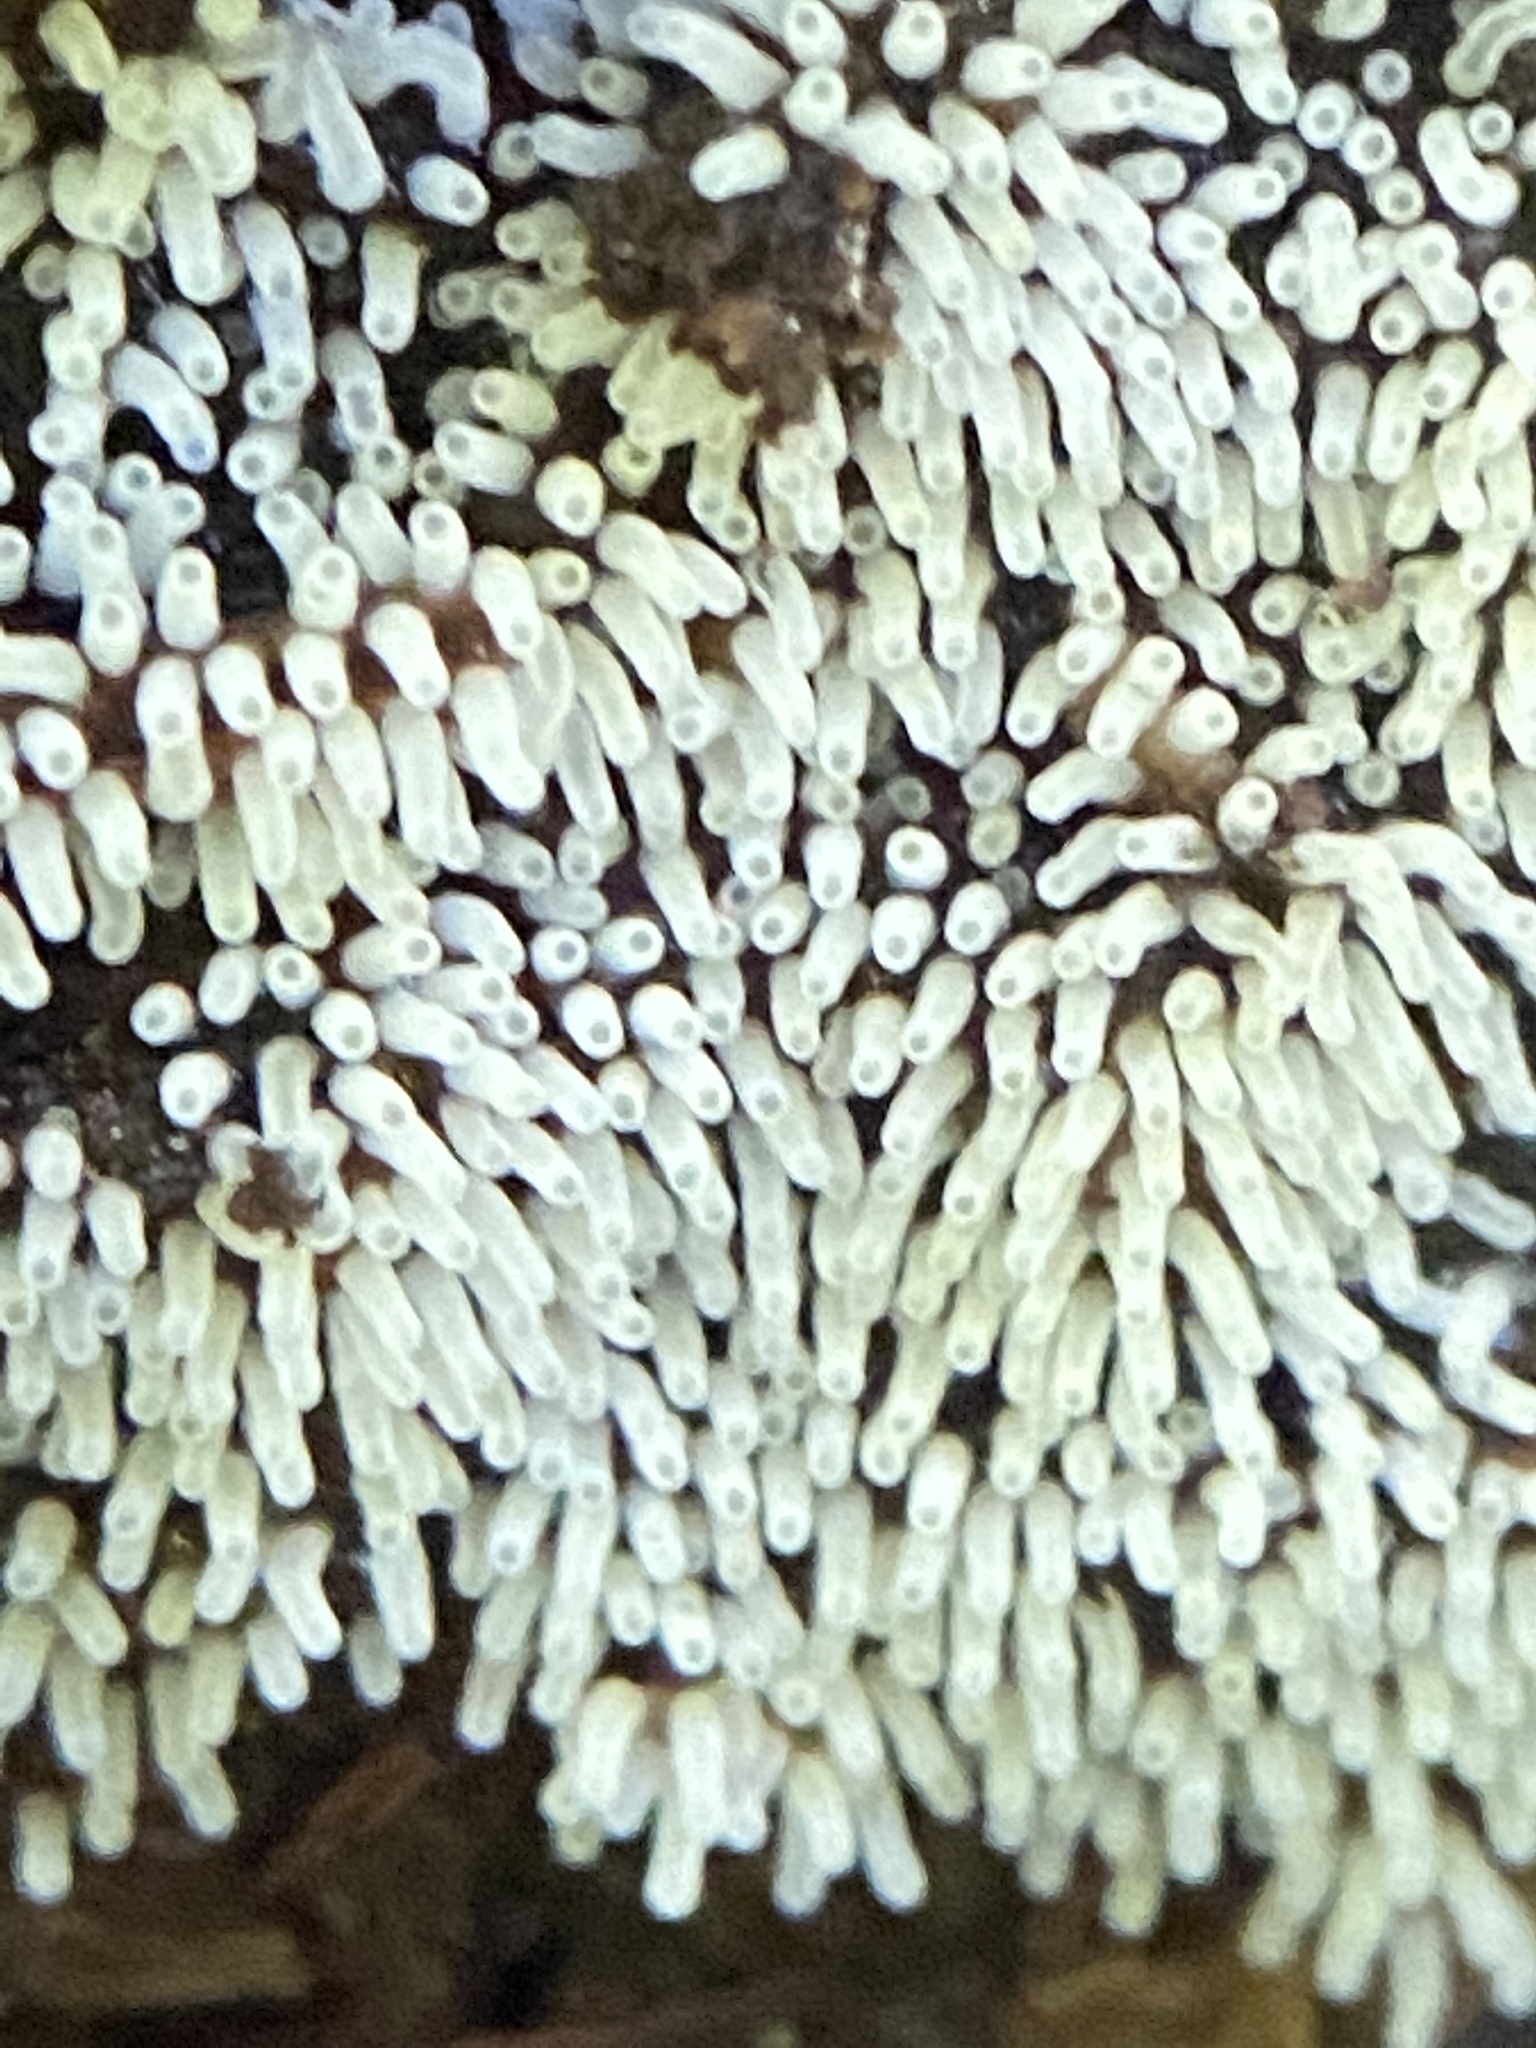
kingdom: Protozoa
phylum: Mycetozoa
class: Protosteliomycetes
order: Ceratiomyxales
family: Ceratiomyxaceae
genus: Ceratiomyxa
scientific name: Ceratiomyxa fruticulosa
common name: Honeycomb coral slime mold
